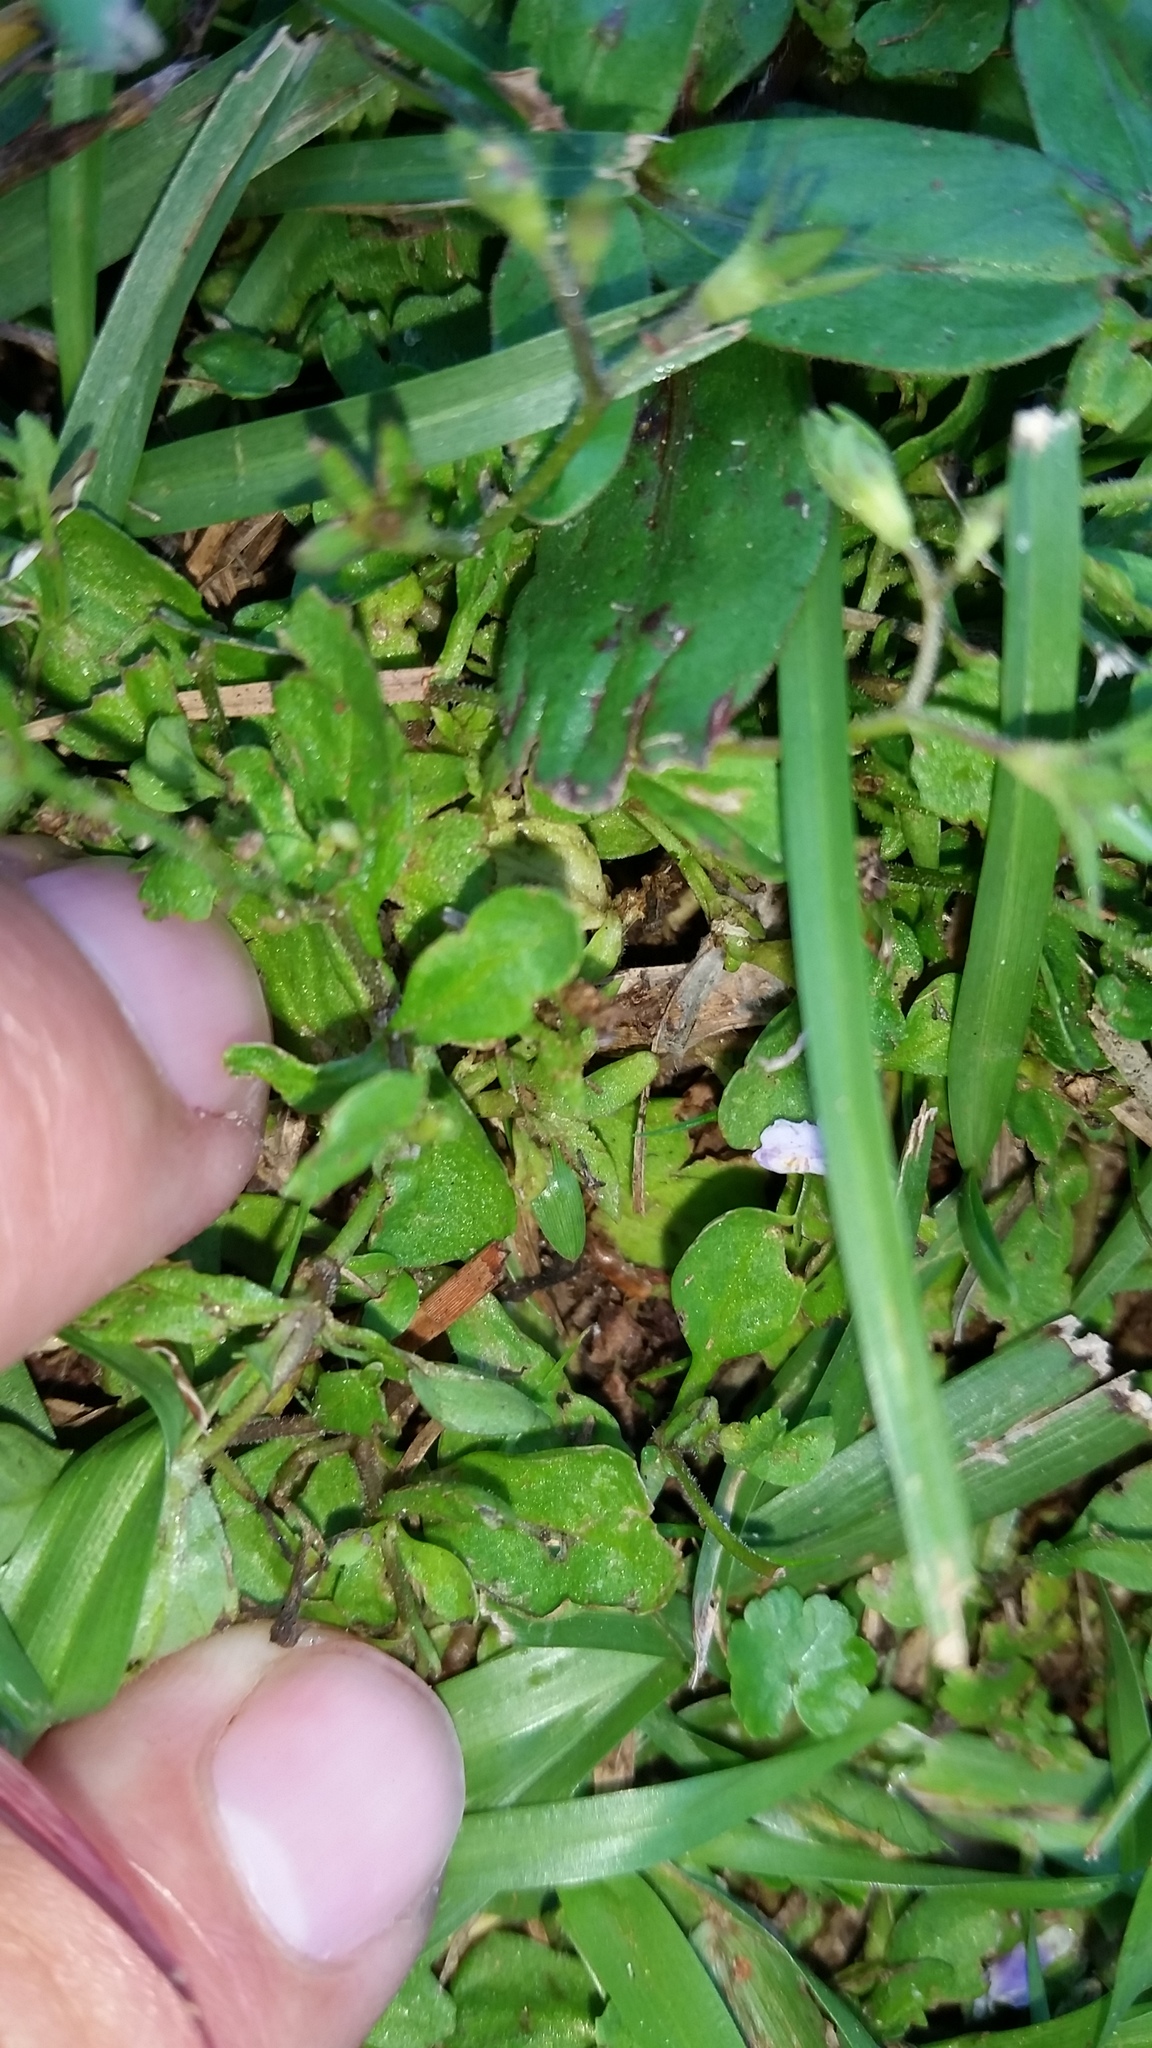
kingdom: Plantae
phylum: Tracheophyta
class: Magnoliopsida
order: Lamiales
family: Mazaceae
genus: Mazus
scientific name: Mazus pumilus
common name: Japanese mazus
